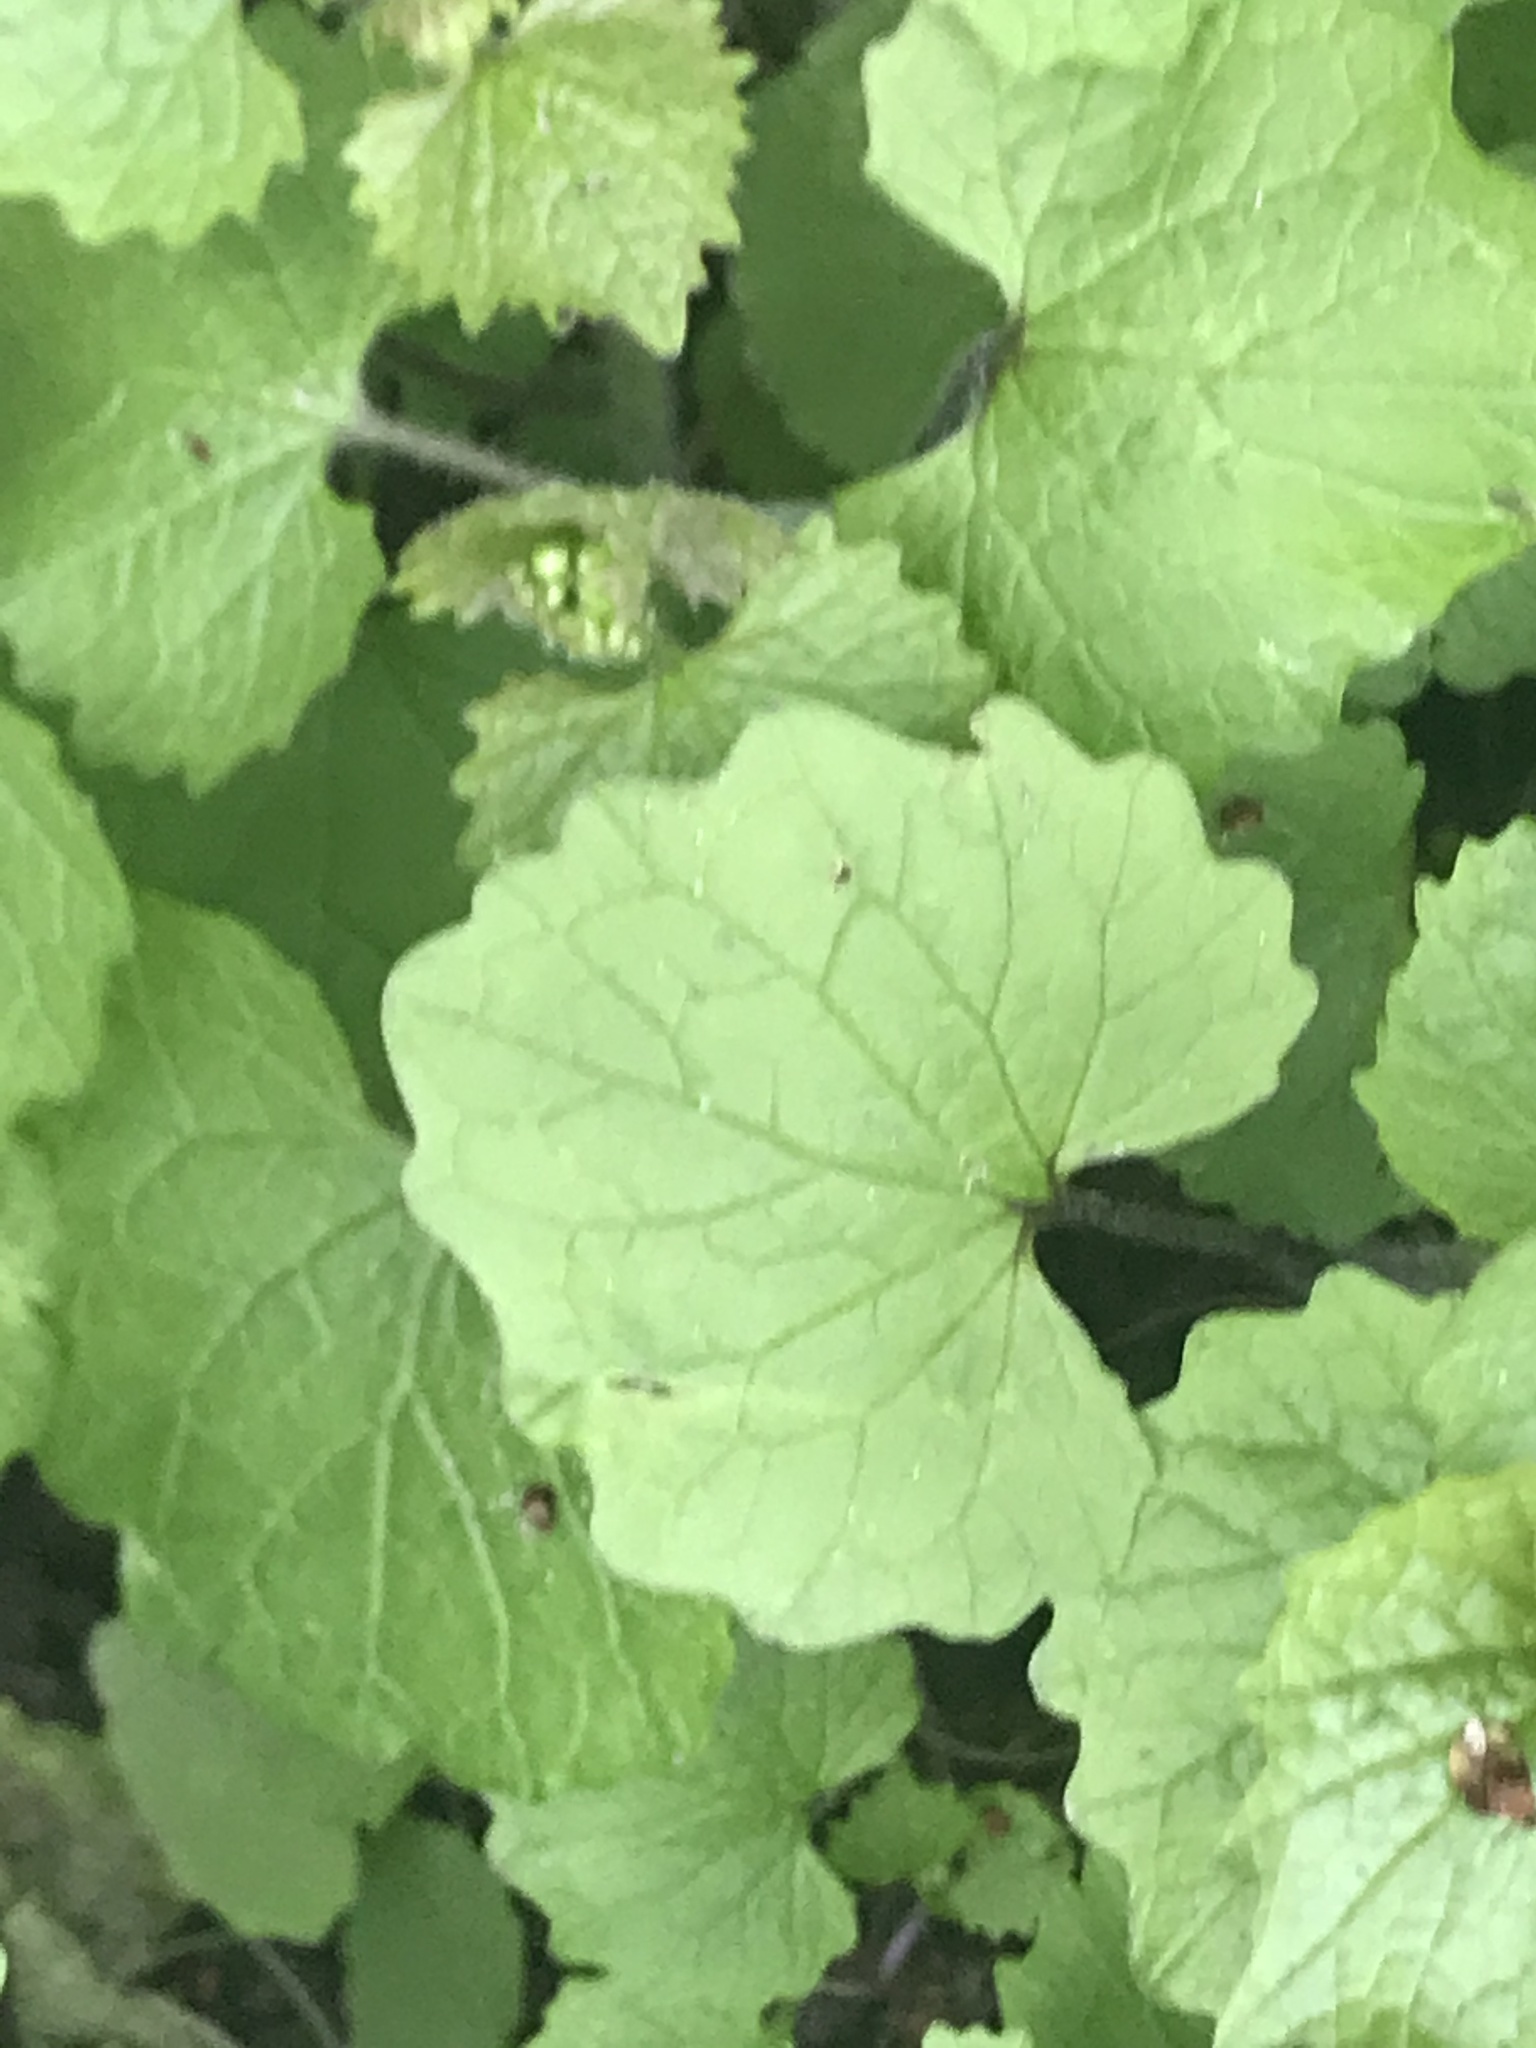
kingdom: Plantae
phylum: Tracheophyta
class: Magnoliopsida
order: Brassicales
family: Brassicaceae
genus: Alliaria
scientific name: Alliaria petiolata
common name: Garlic mustard
